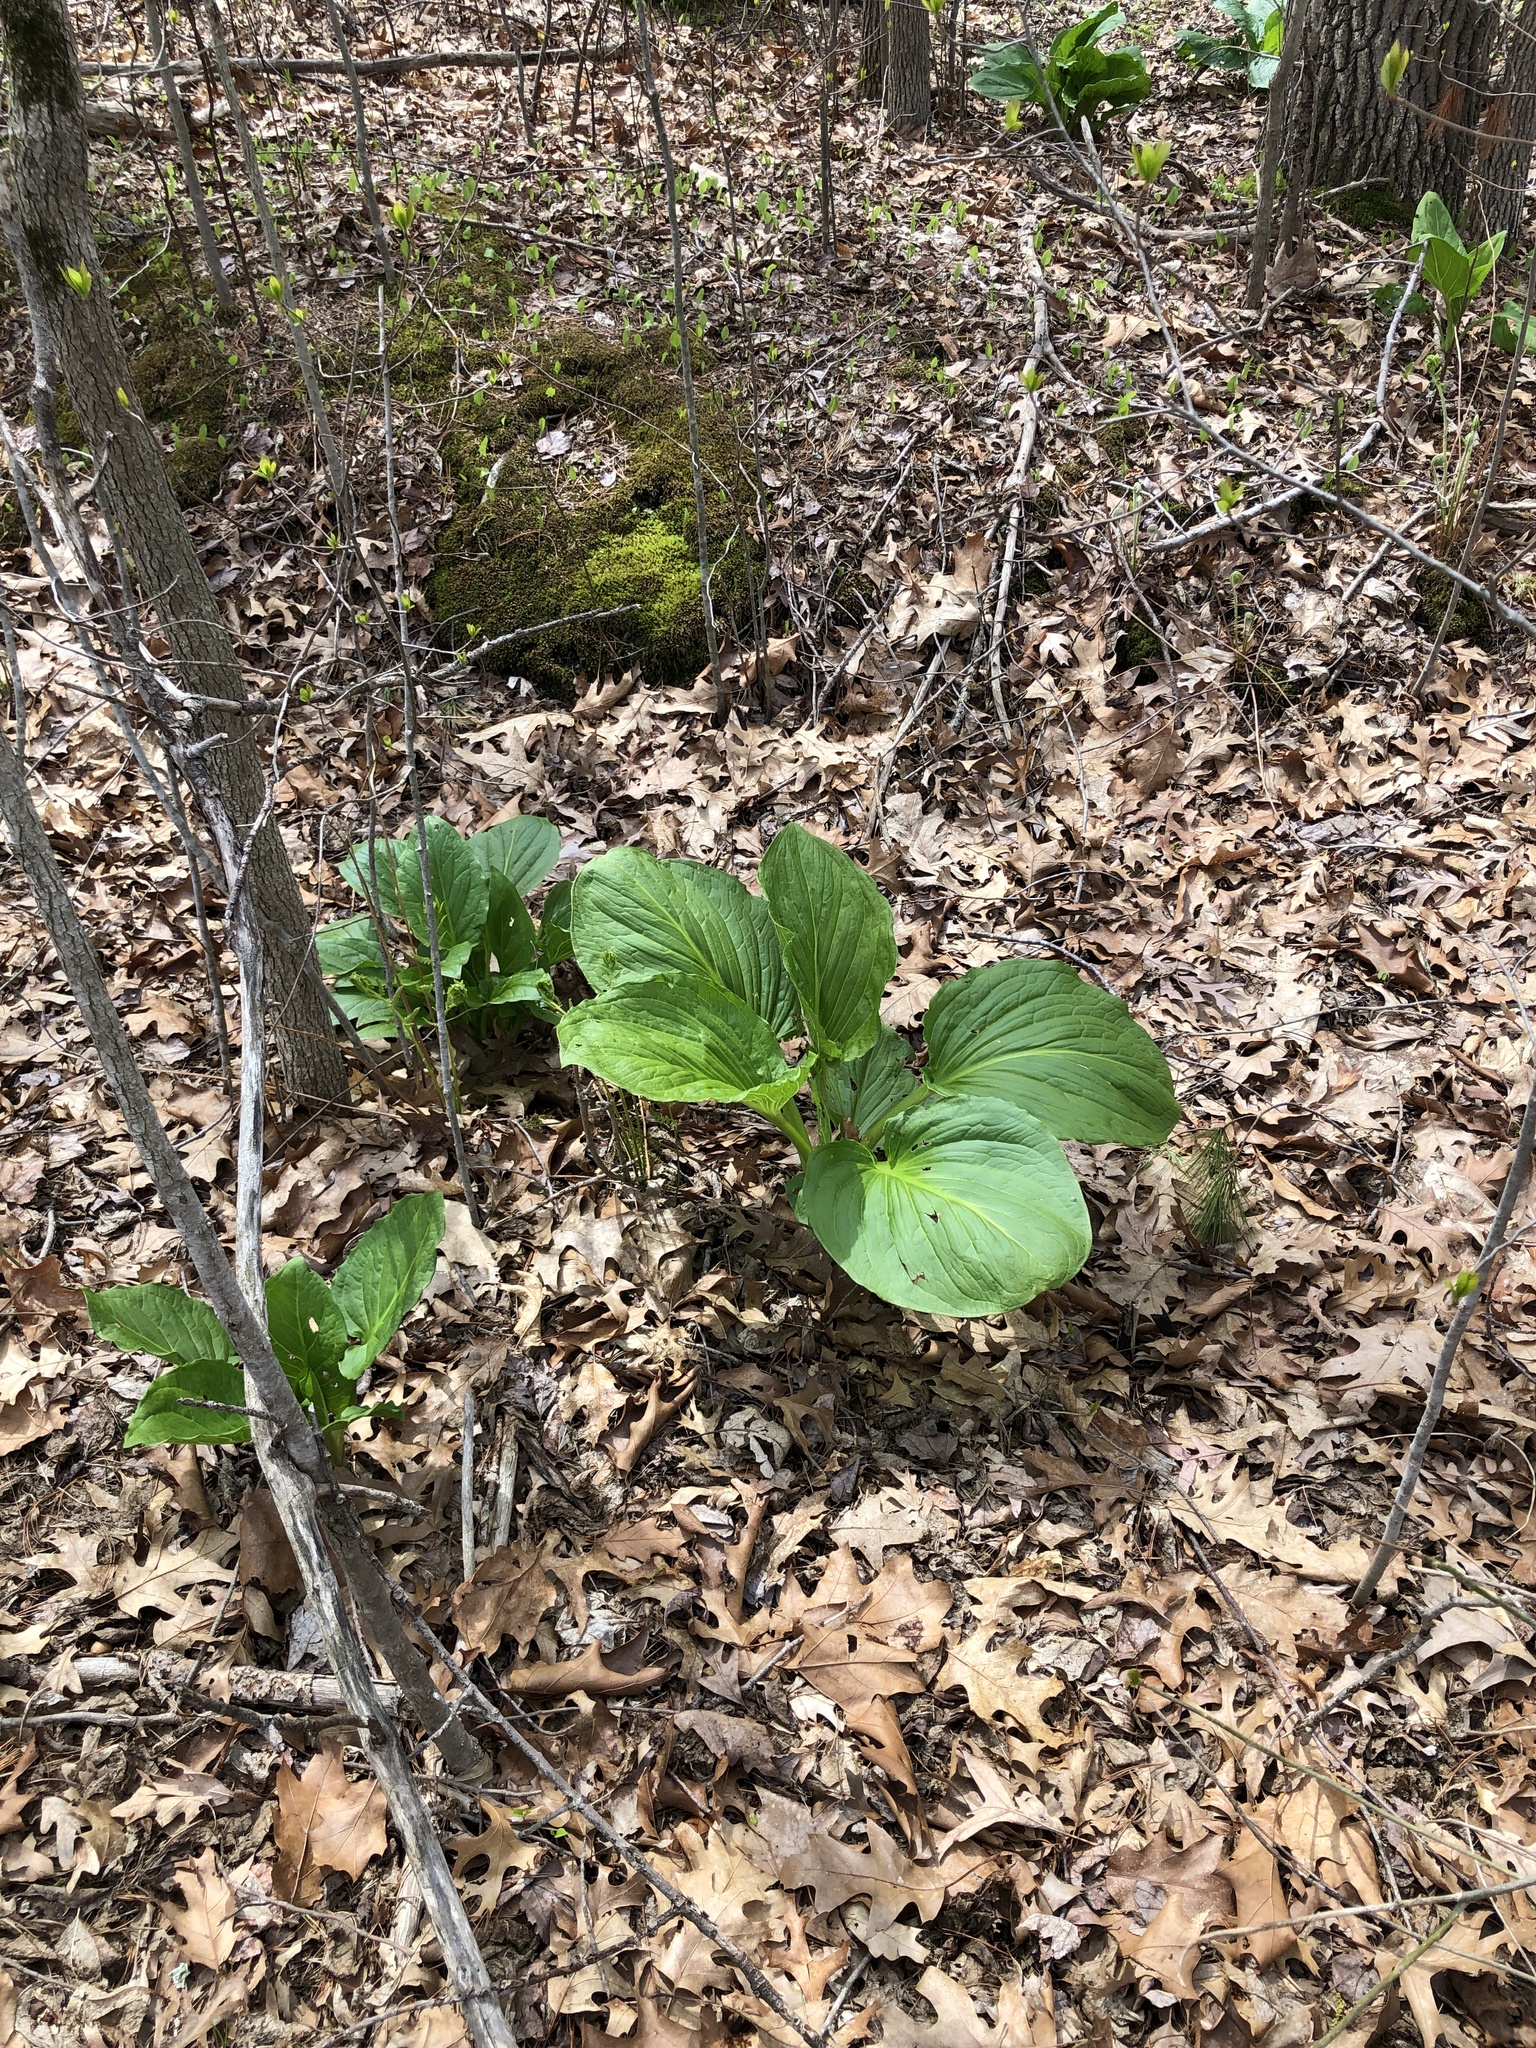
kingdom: Plantae
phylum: Tracheophyta
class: Liliopsida
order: Alismatales
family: Araceae
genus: Symplocarpus
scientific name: Symplocarpus foetidus
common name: Eastern skunk cabbage
